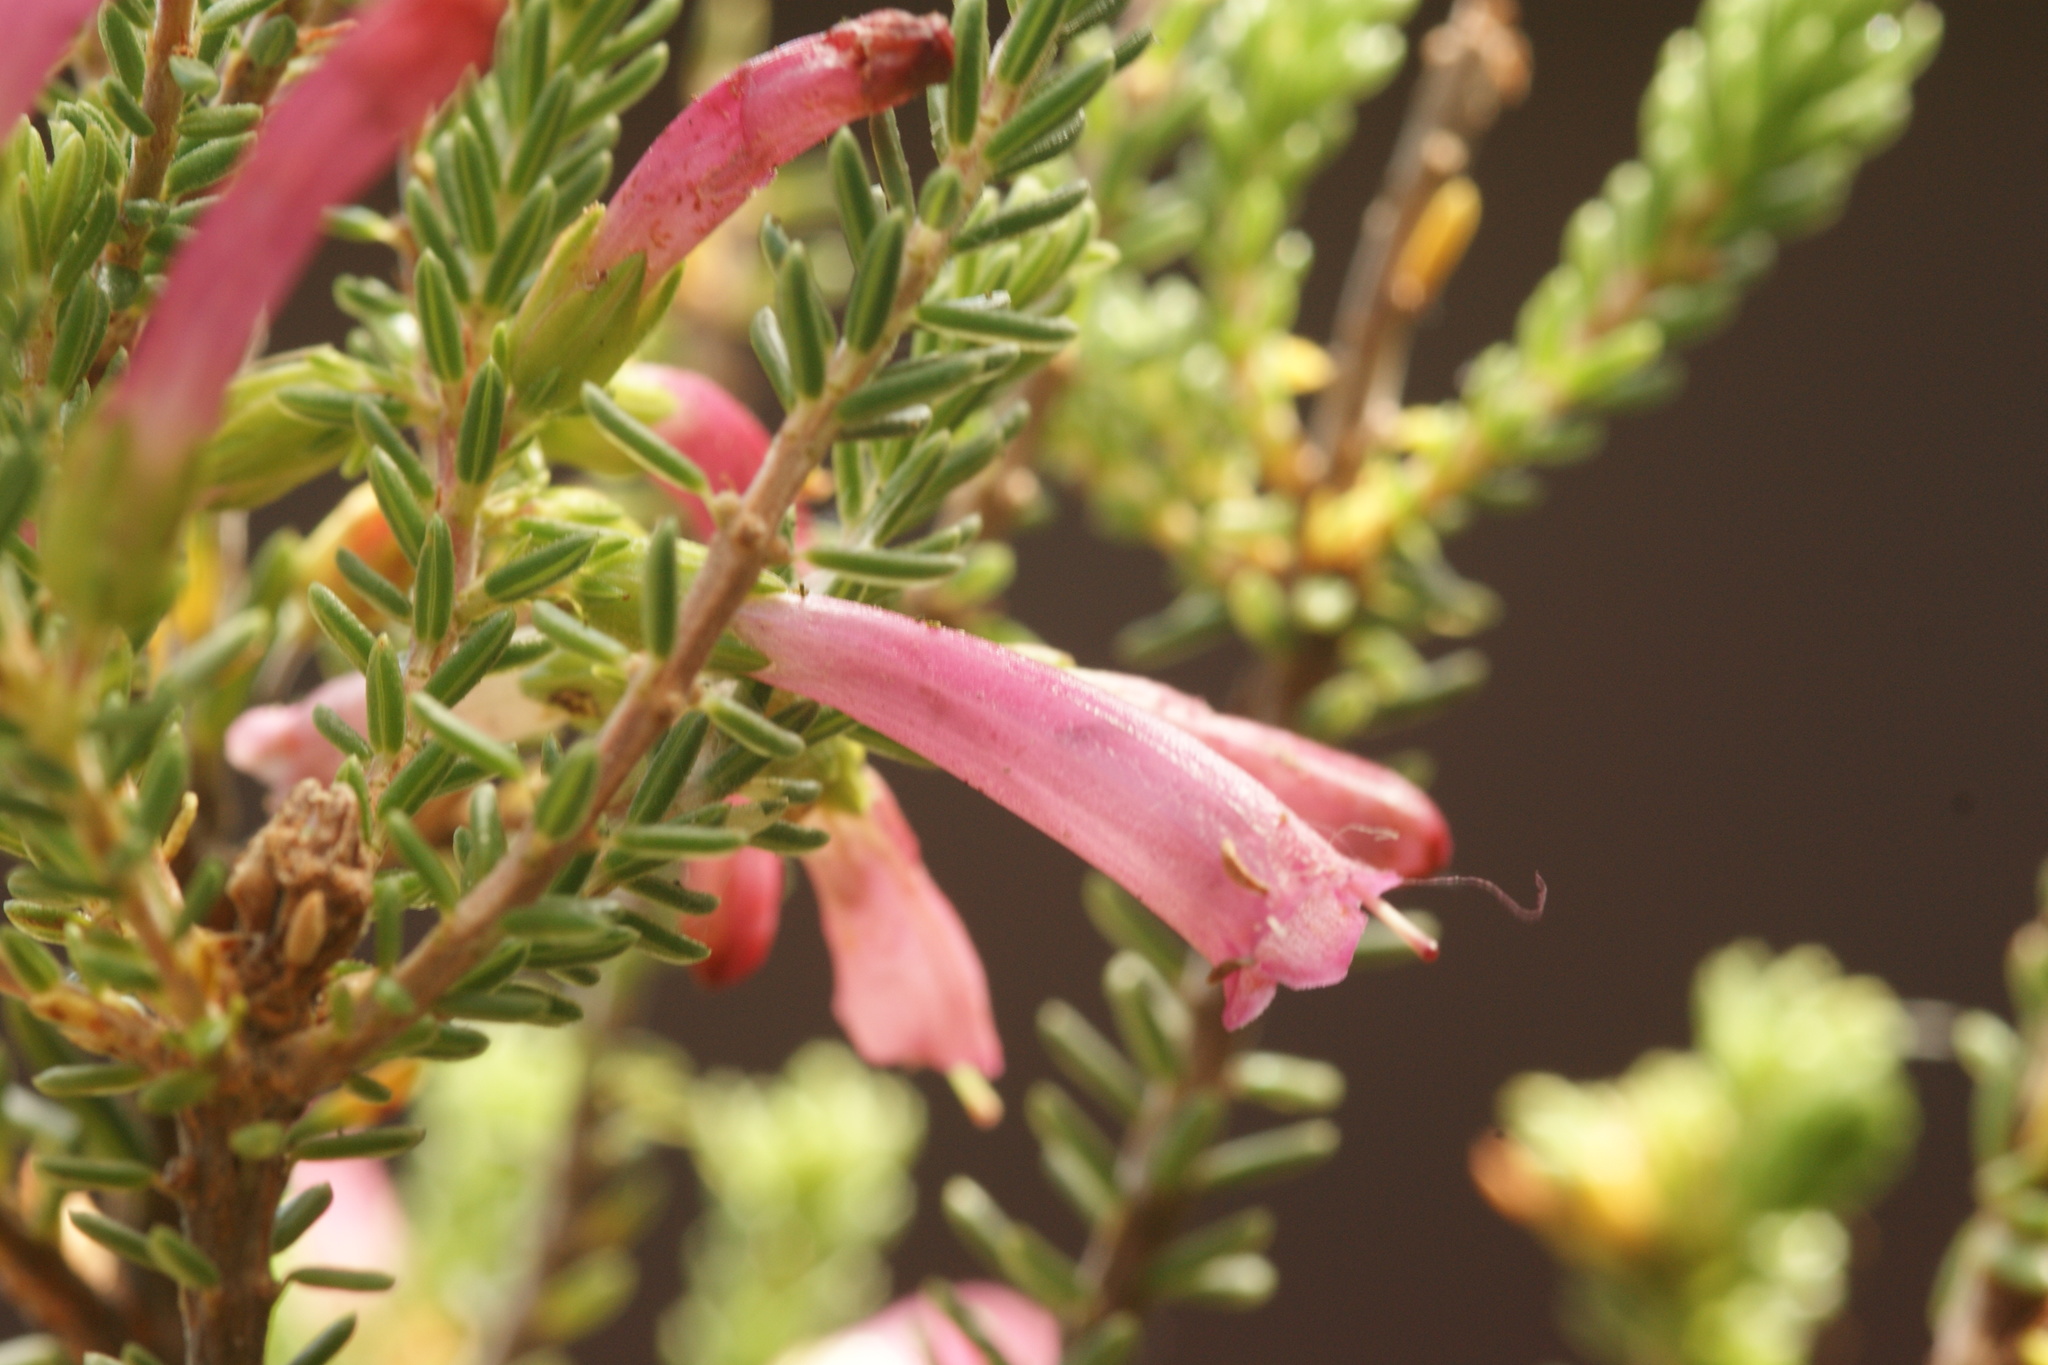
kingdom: Plantae
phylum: Tracheophyta
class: Magnoliopsida
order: Ericales
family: Ericaceae
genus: Erica
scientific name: Erica abietina
